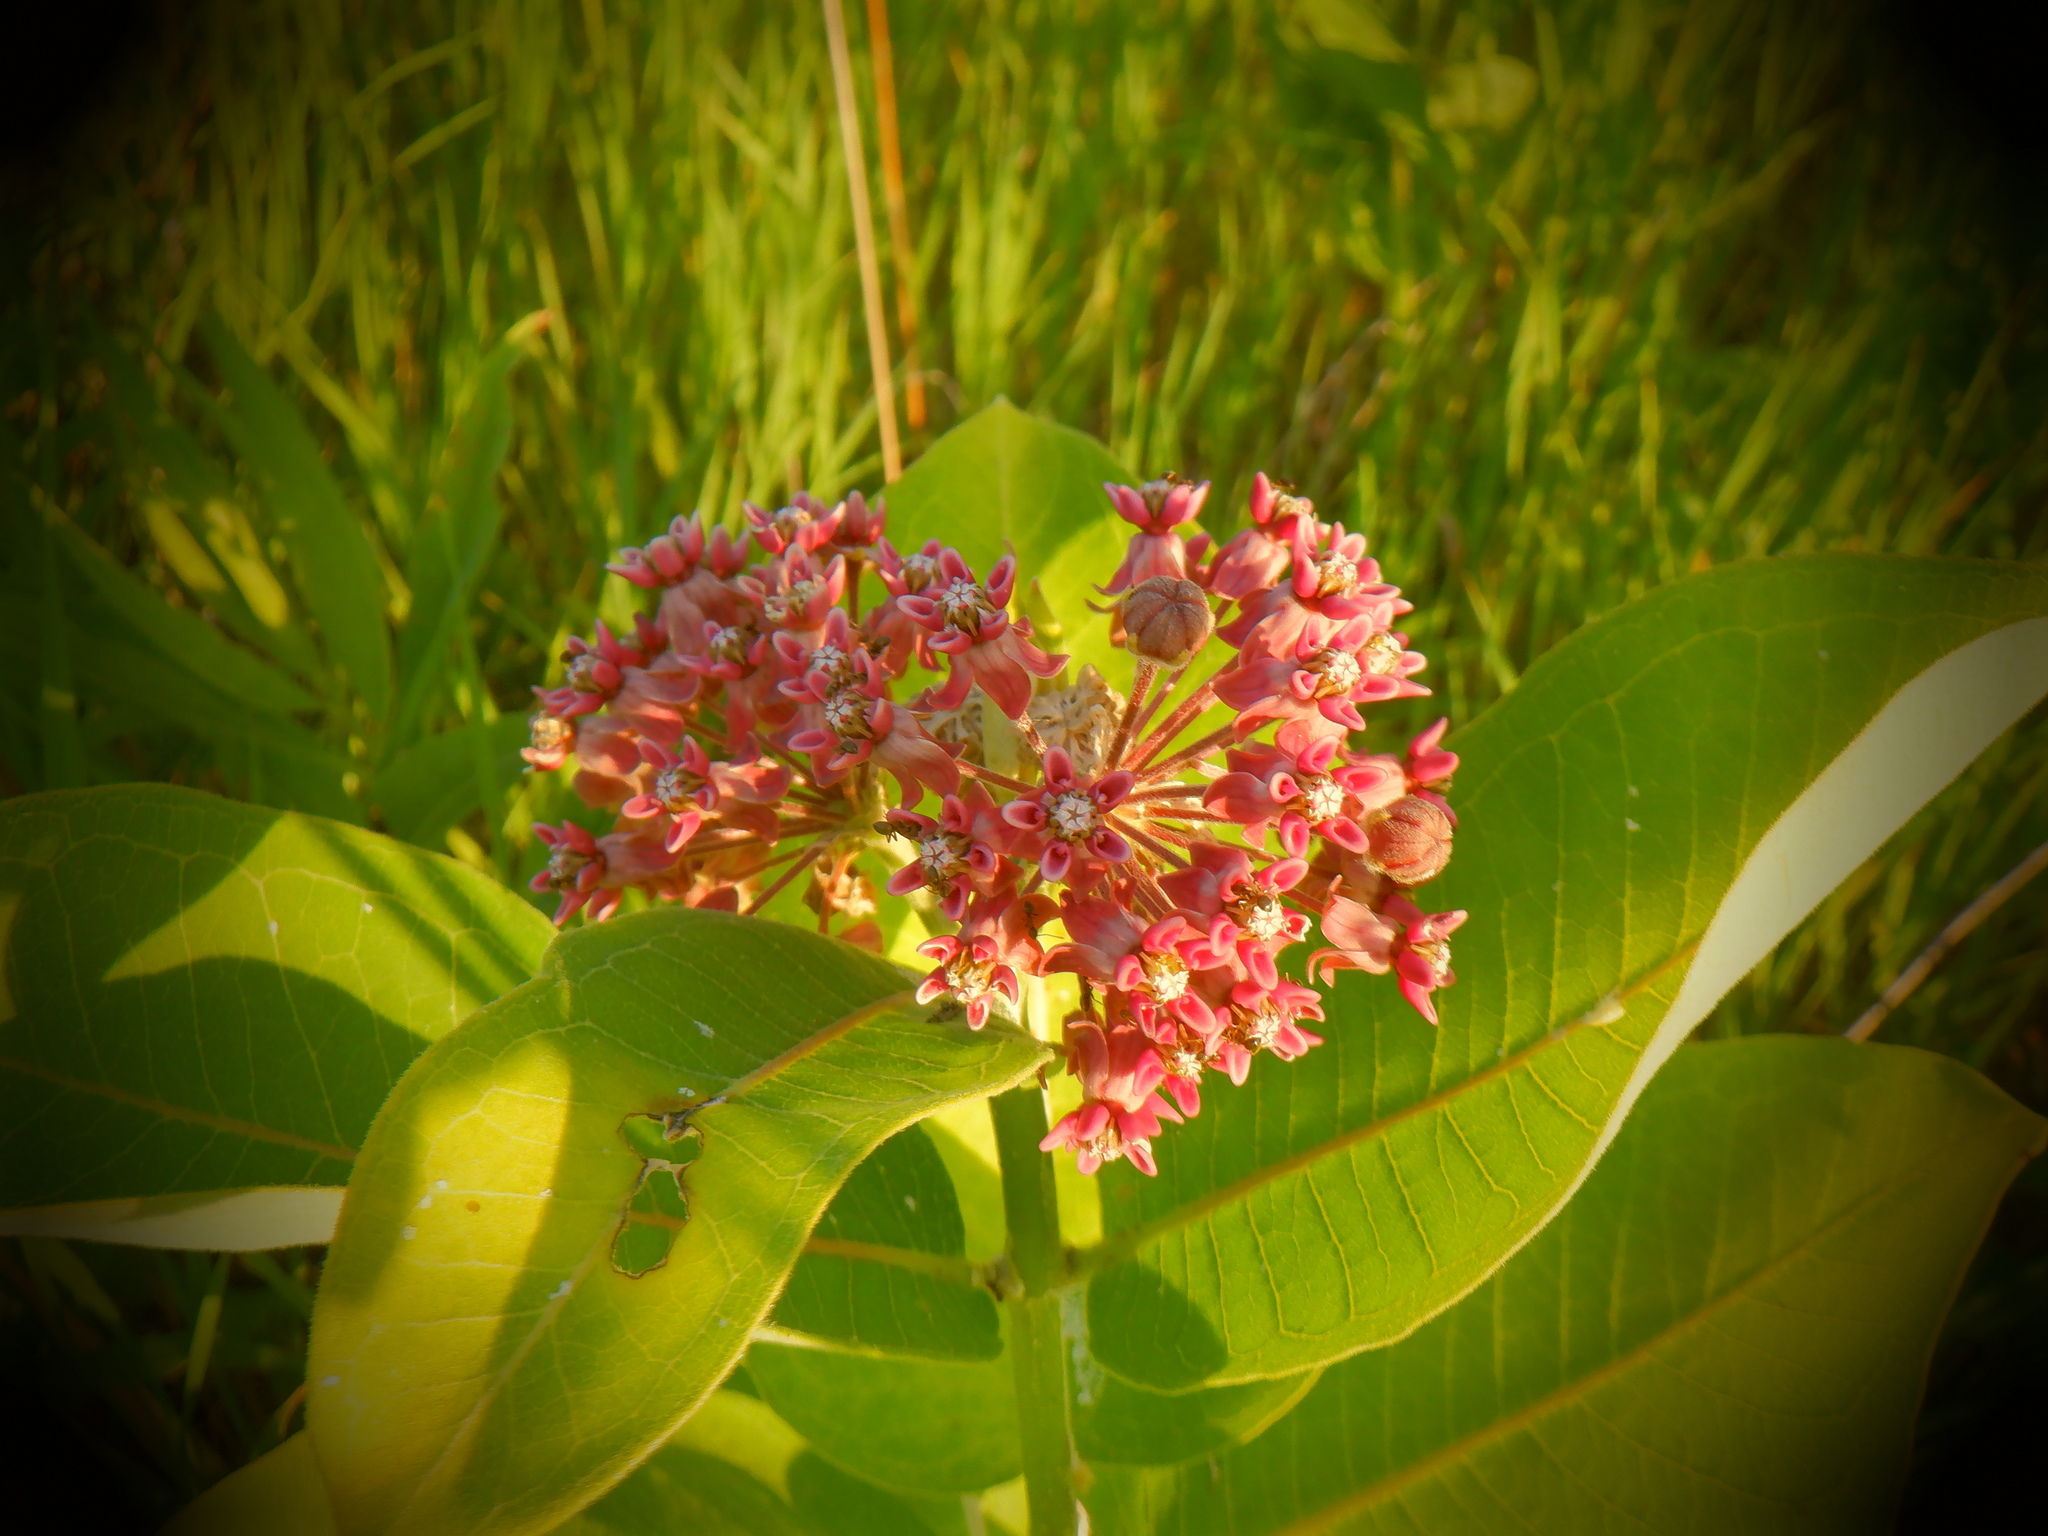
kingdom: Plantae
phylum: Tracheophyta
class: Magnoliopsida
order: Gentianales
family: Apocynaceae
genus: Asclepias
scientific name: Asclepias syriaca
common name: Common milkweed
